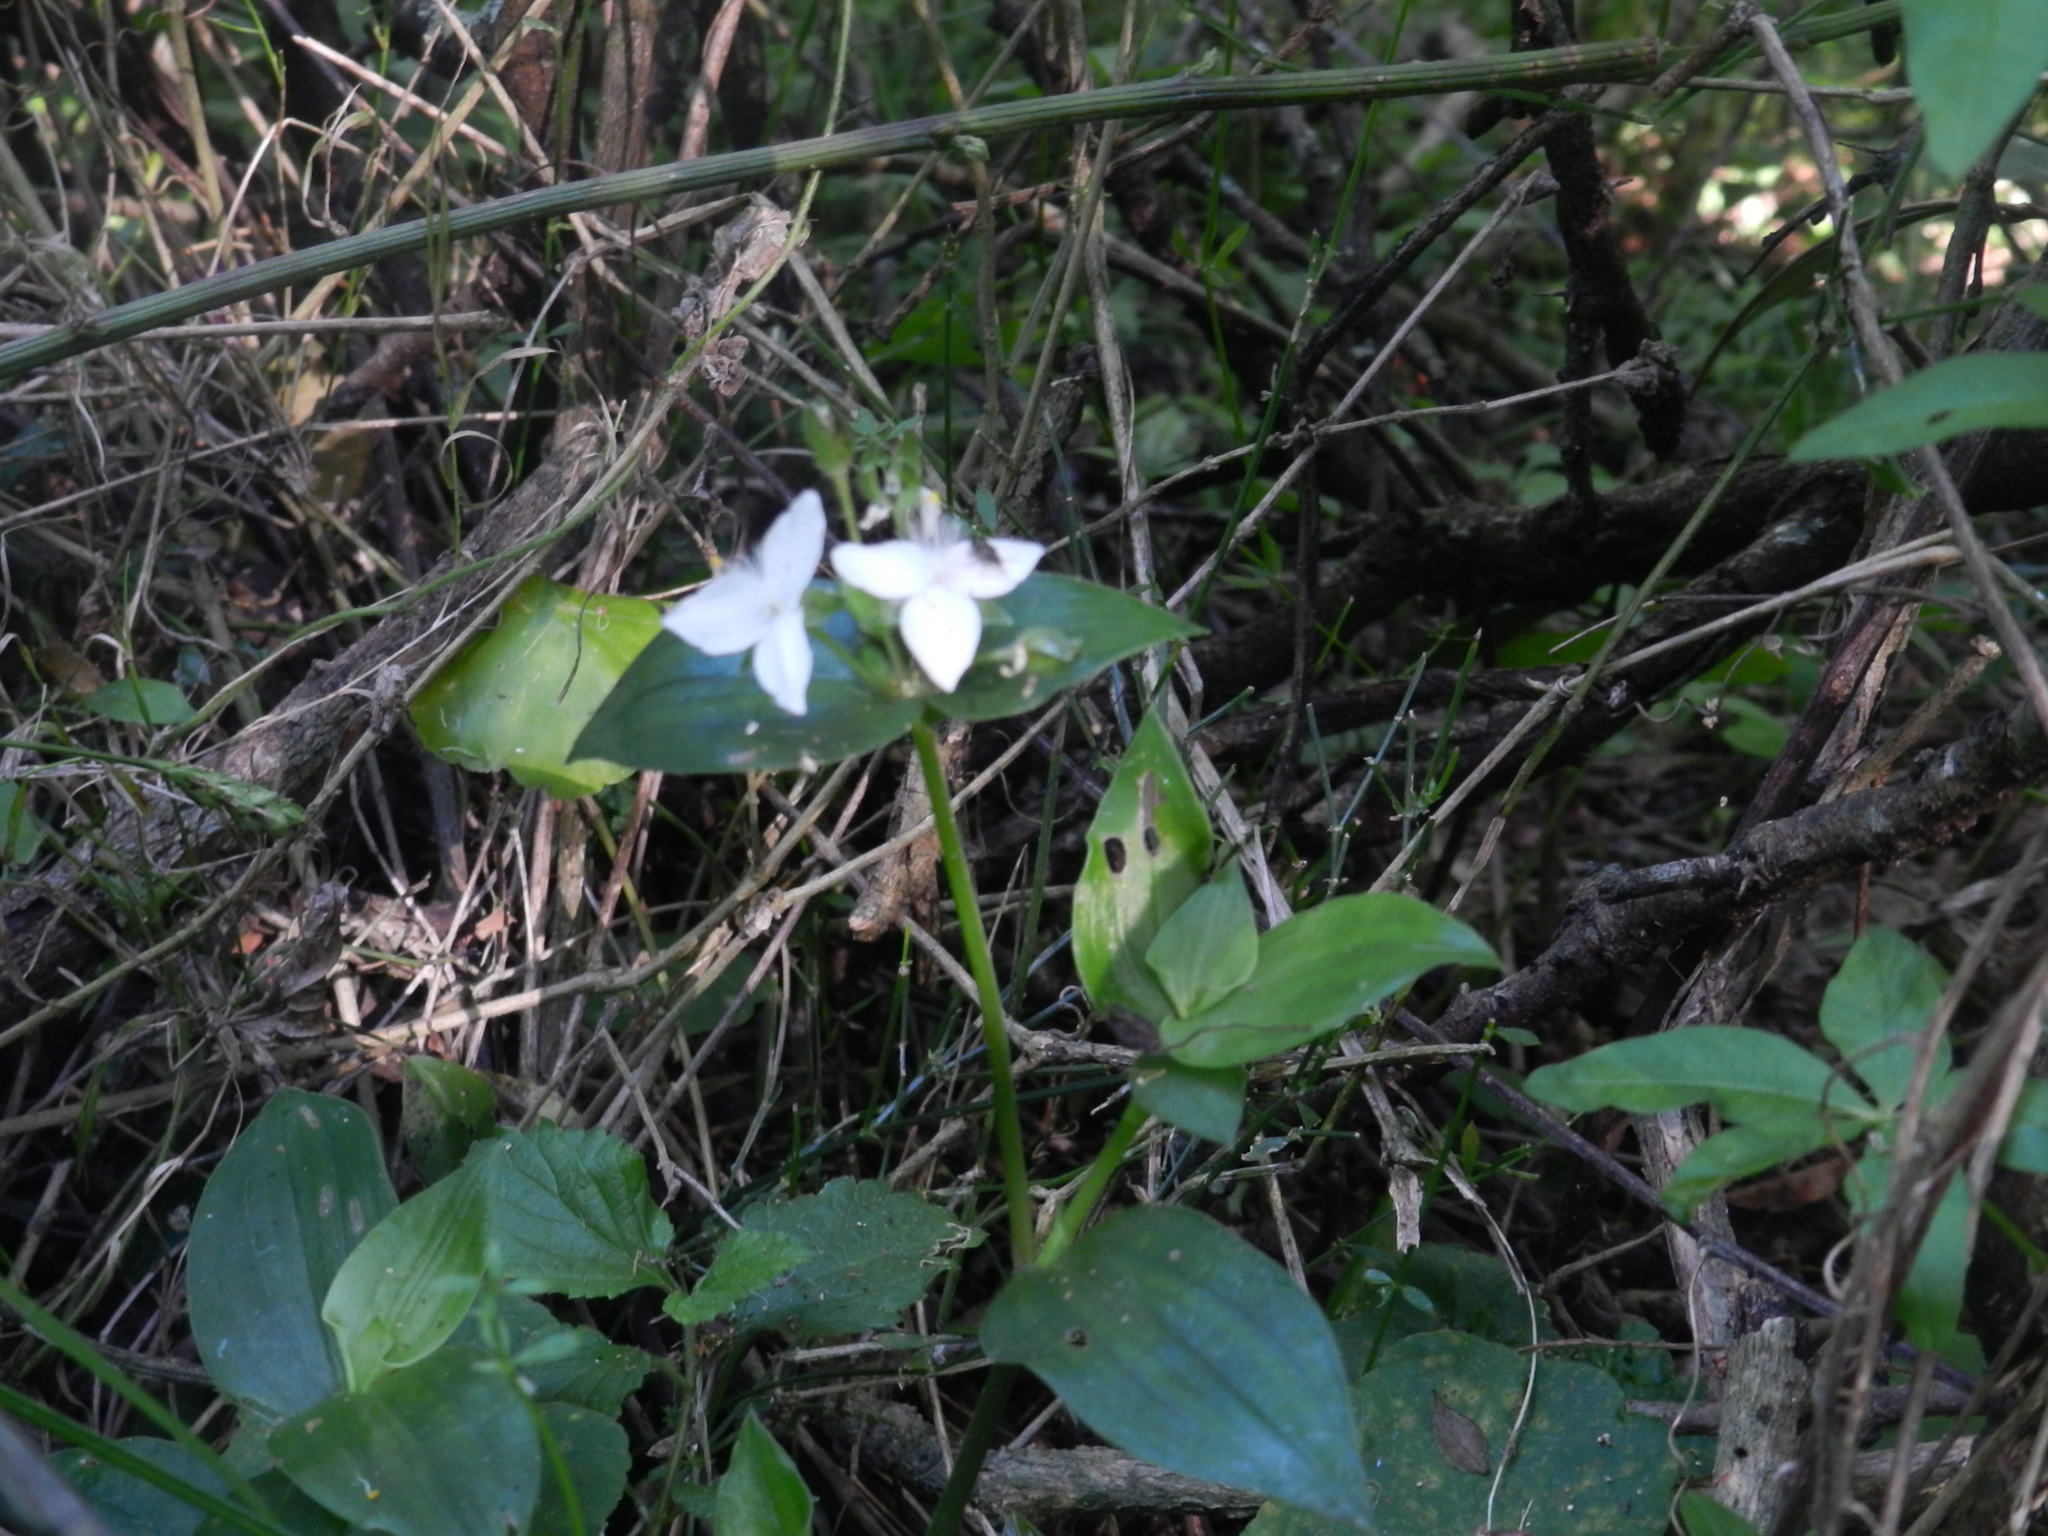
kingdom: Plantae
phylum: Tracheophyta
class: Liliopsida
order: Commelinales
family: Commelinaceae
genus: Tradescantia
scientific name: Tradescantia fluminensis
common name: Wandering-jew
